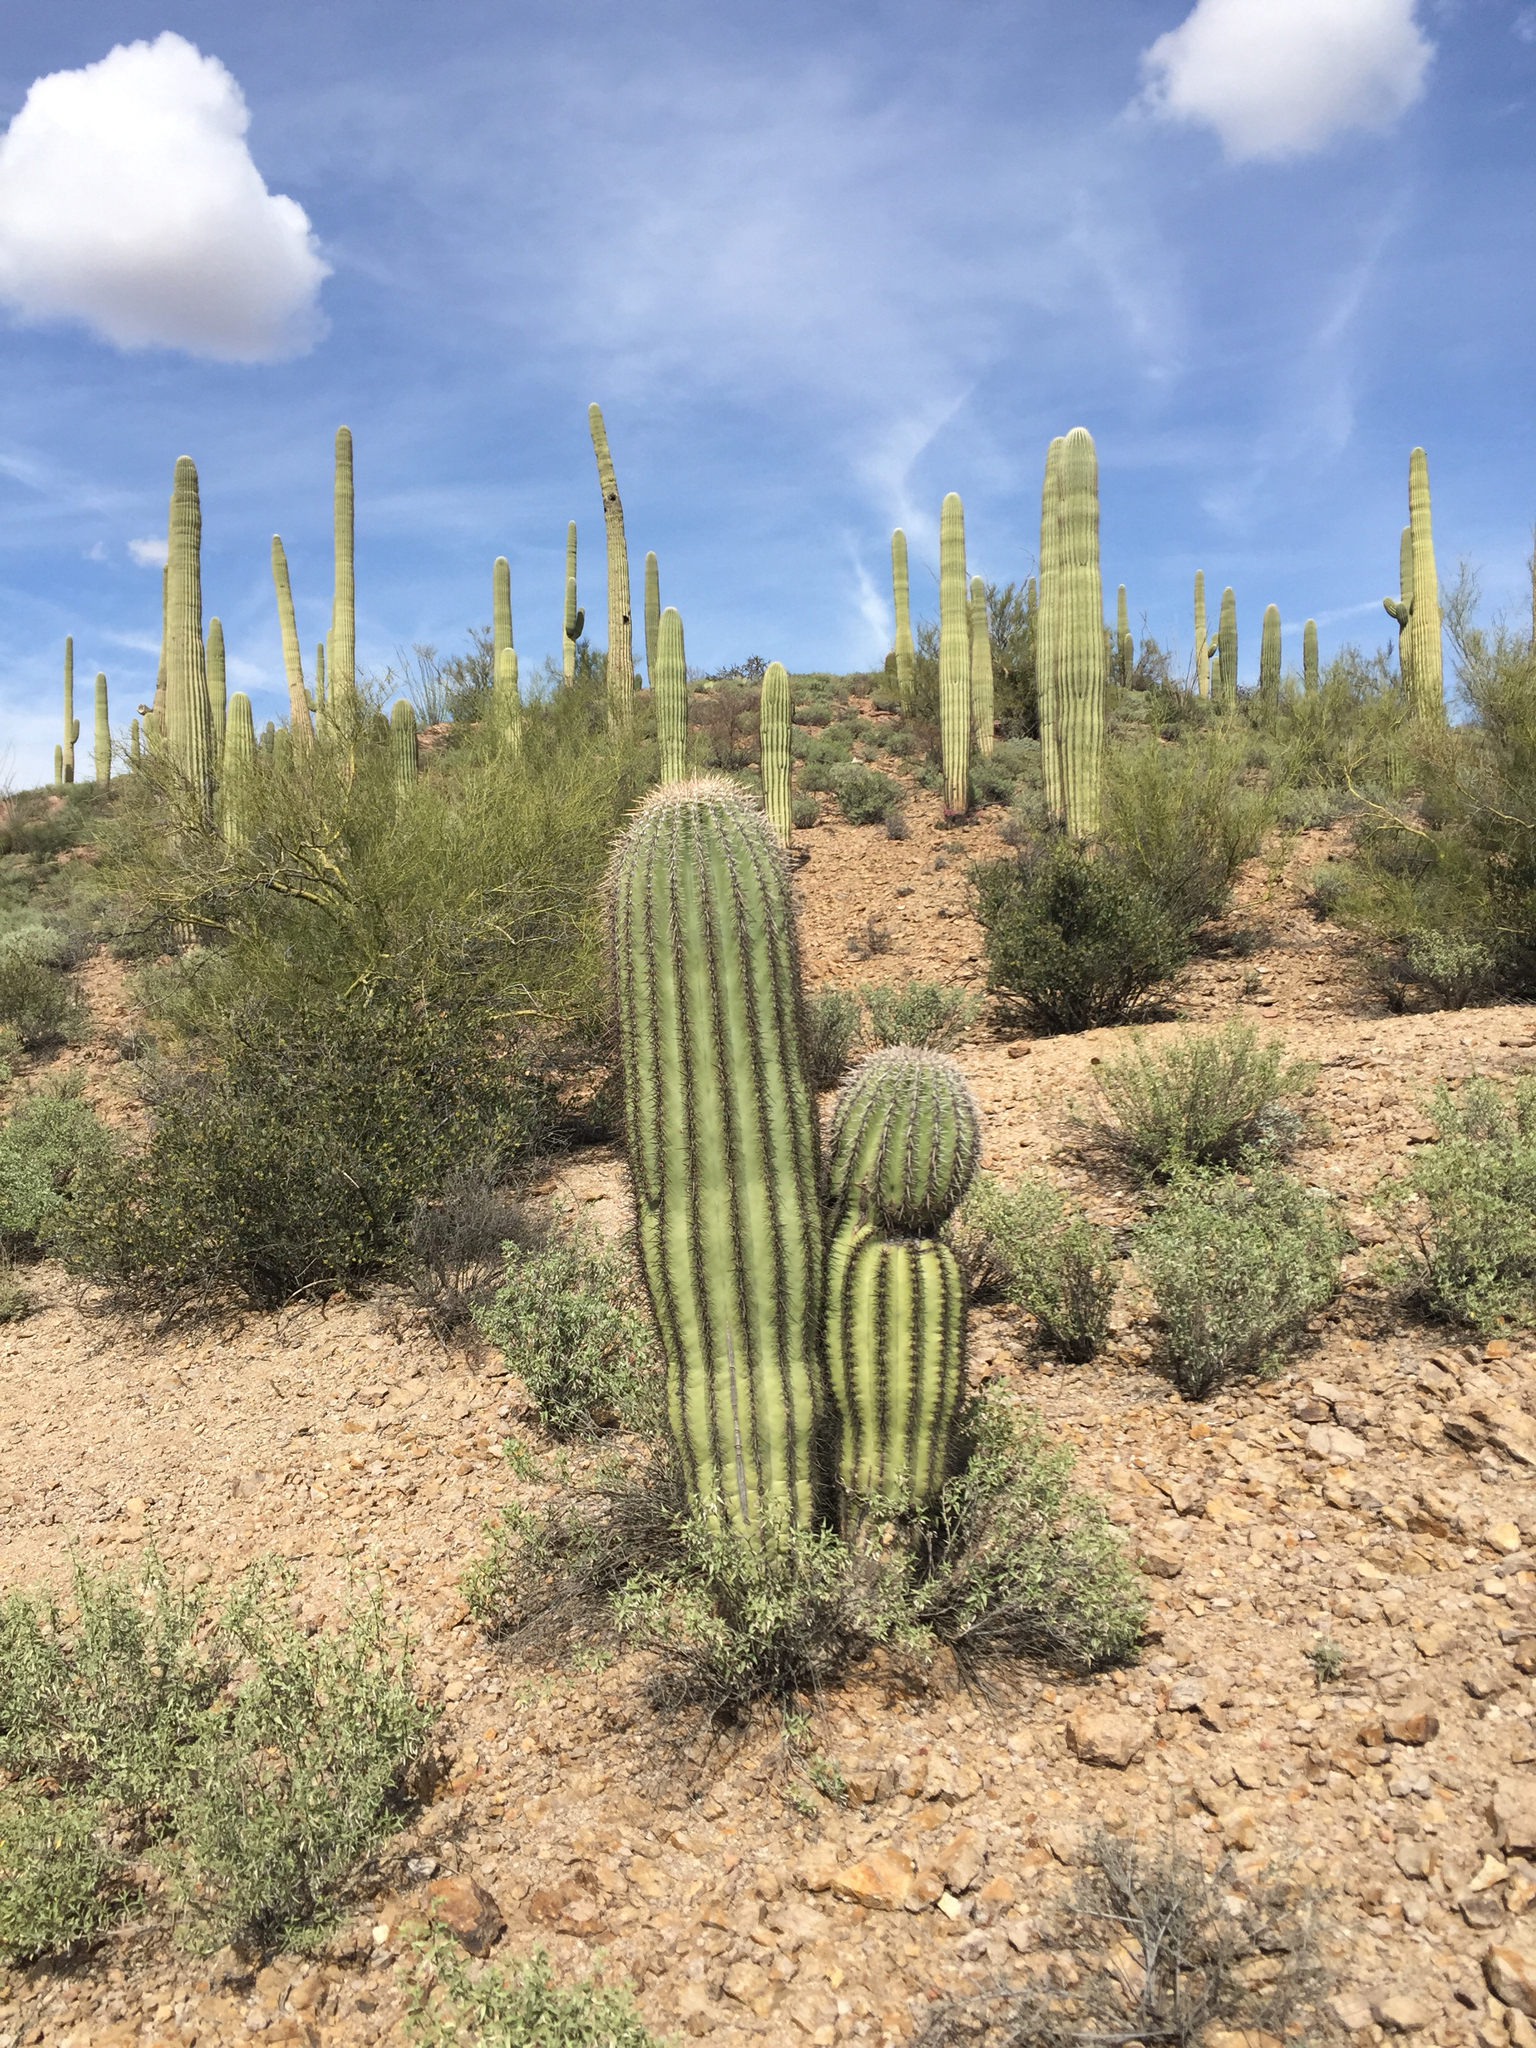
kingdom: Plantae
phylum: Tracheophyta
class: Magnoliopsida
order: Caryophyllales
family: Cactaceae
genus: Carnegiea
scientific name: Carnegiea gigantea
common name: Saguaro
